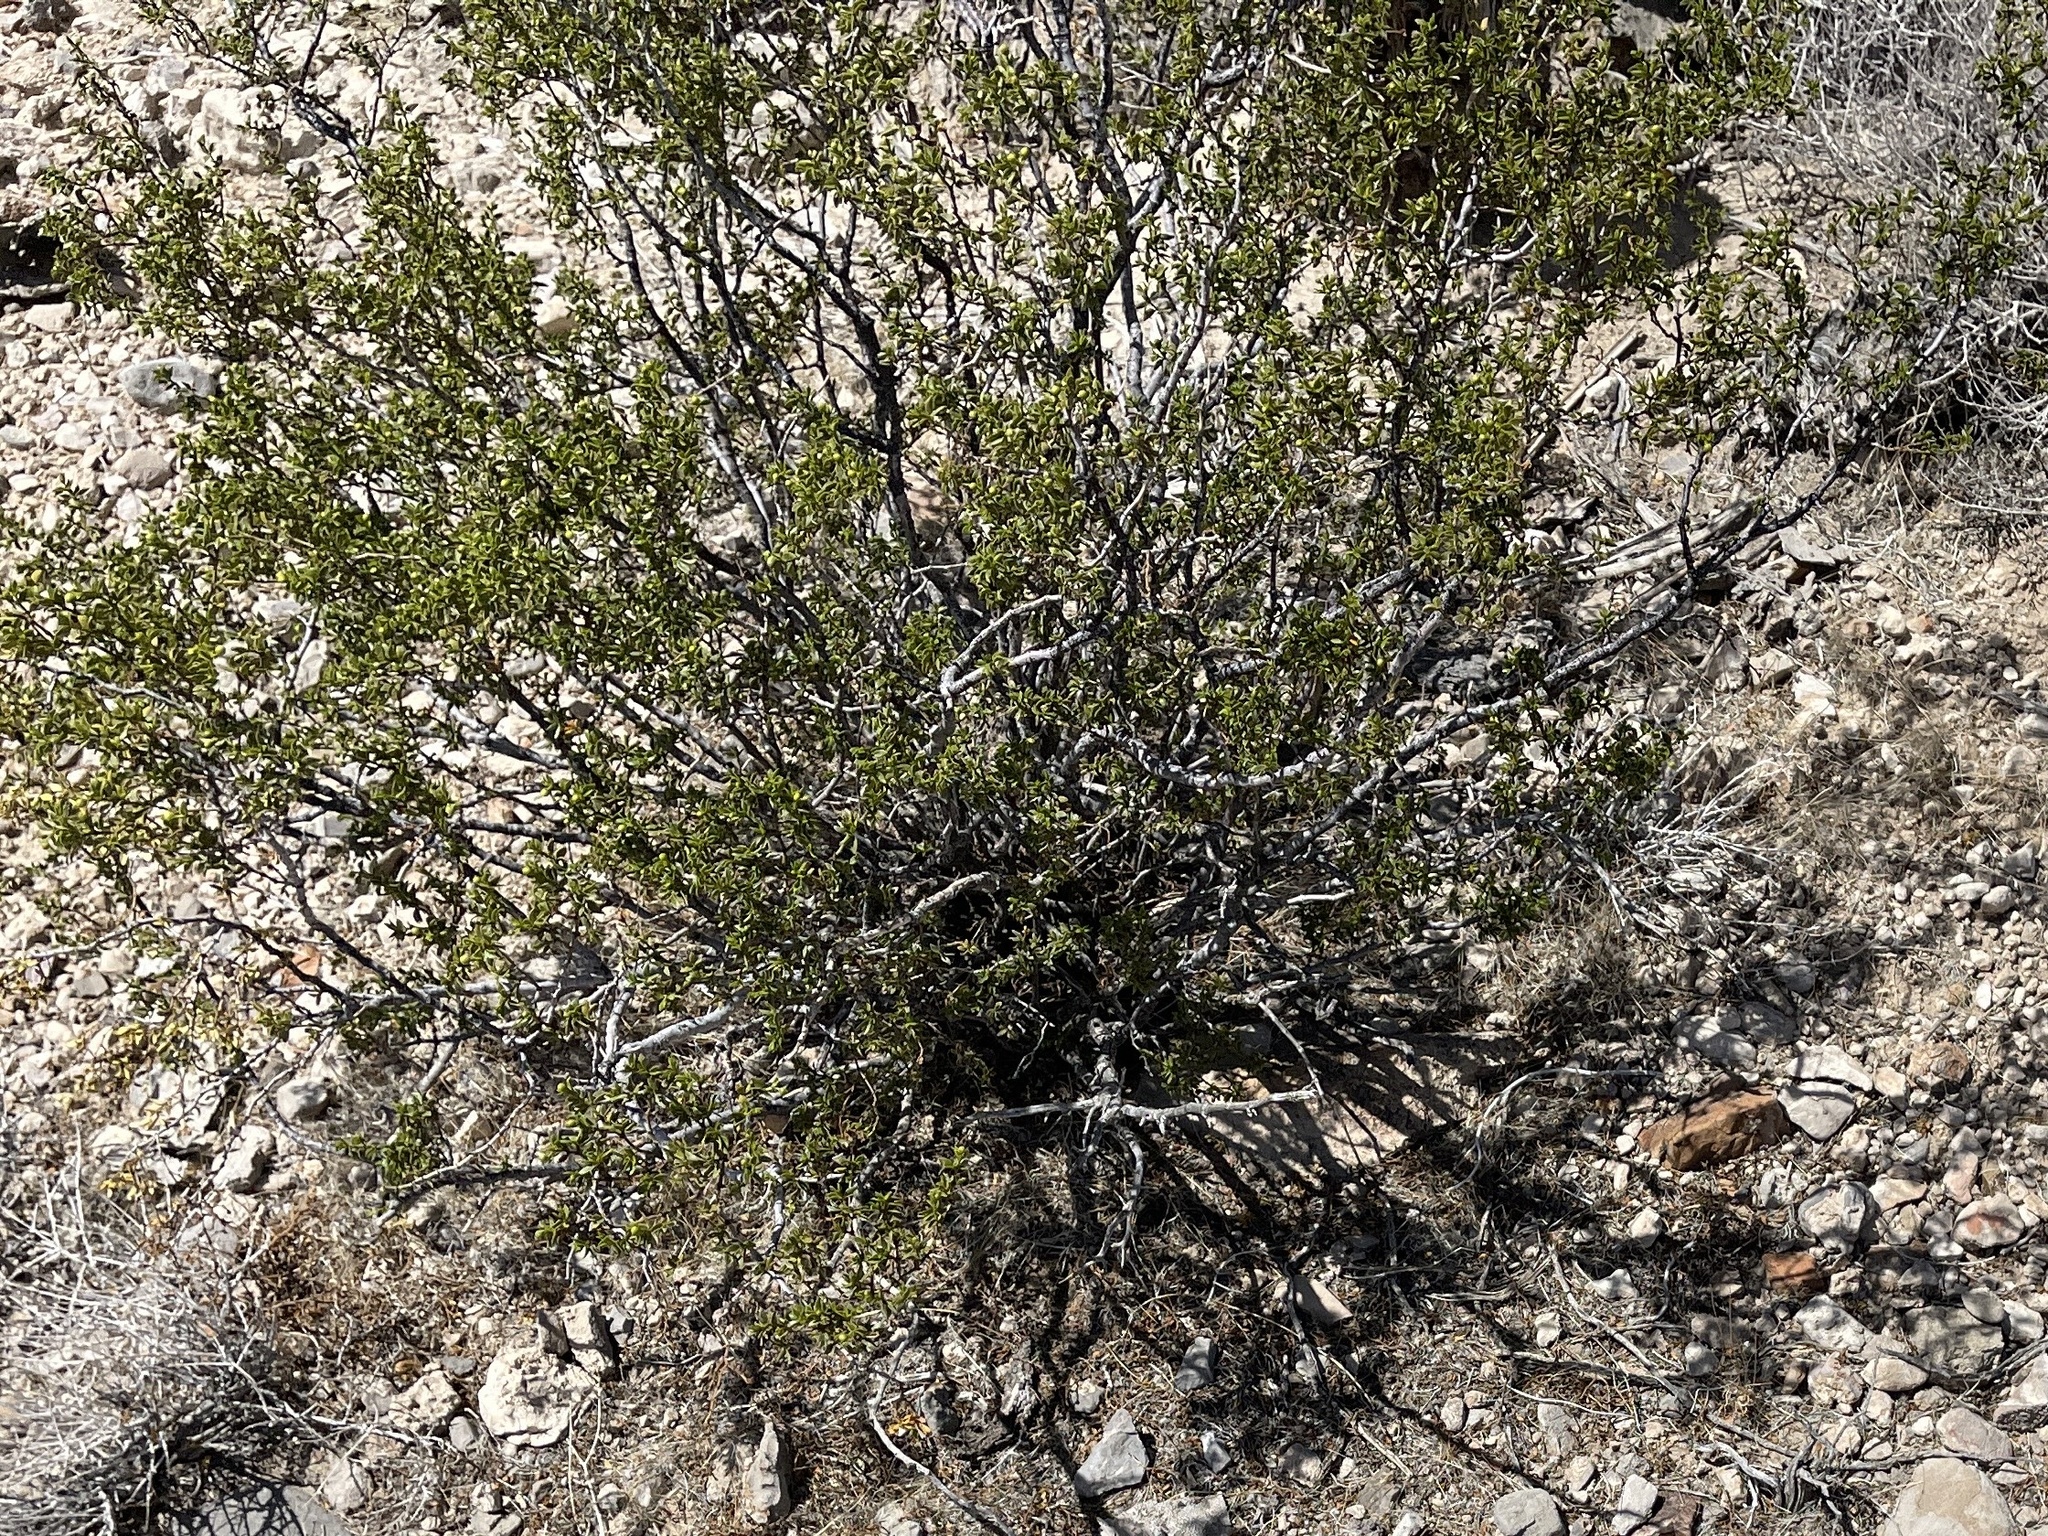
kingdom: Plantae
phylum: Tracheophyta
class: Magnoliopsida
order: Zygophyllales
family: Zygophyllaceae
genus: Larrea
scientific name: Larrea tridentata
